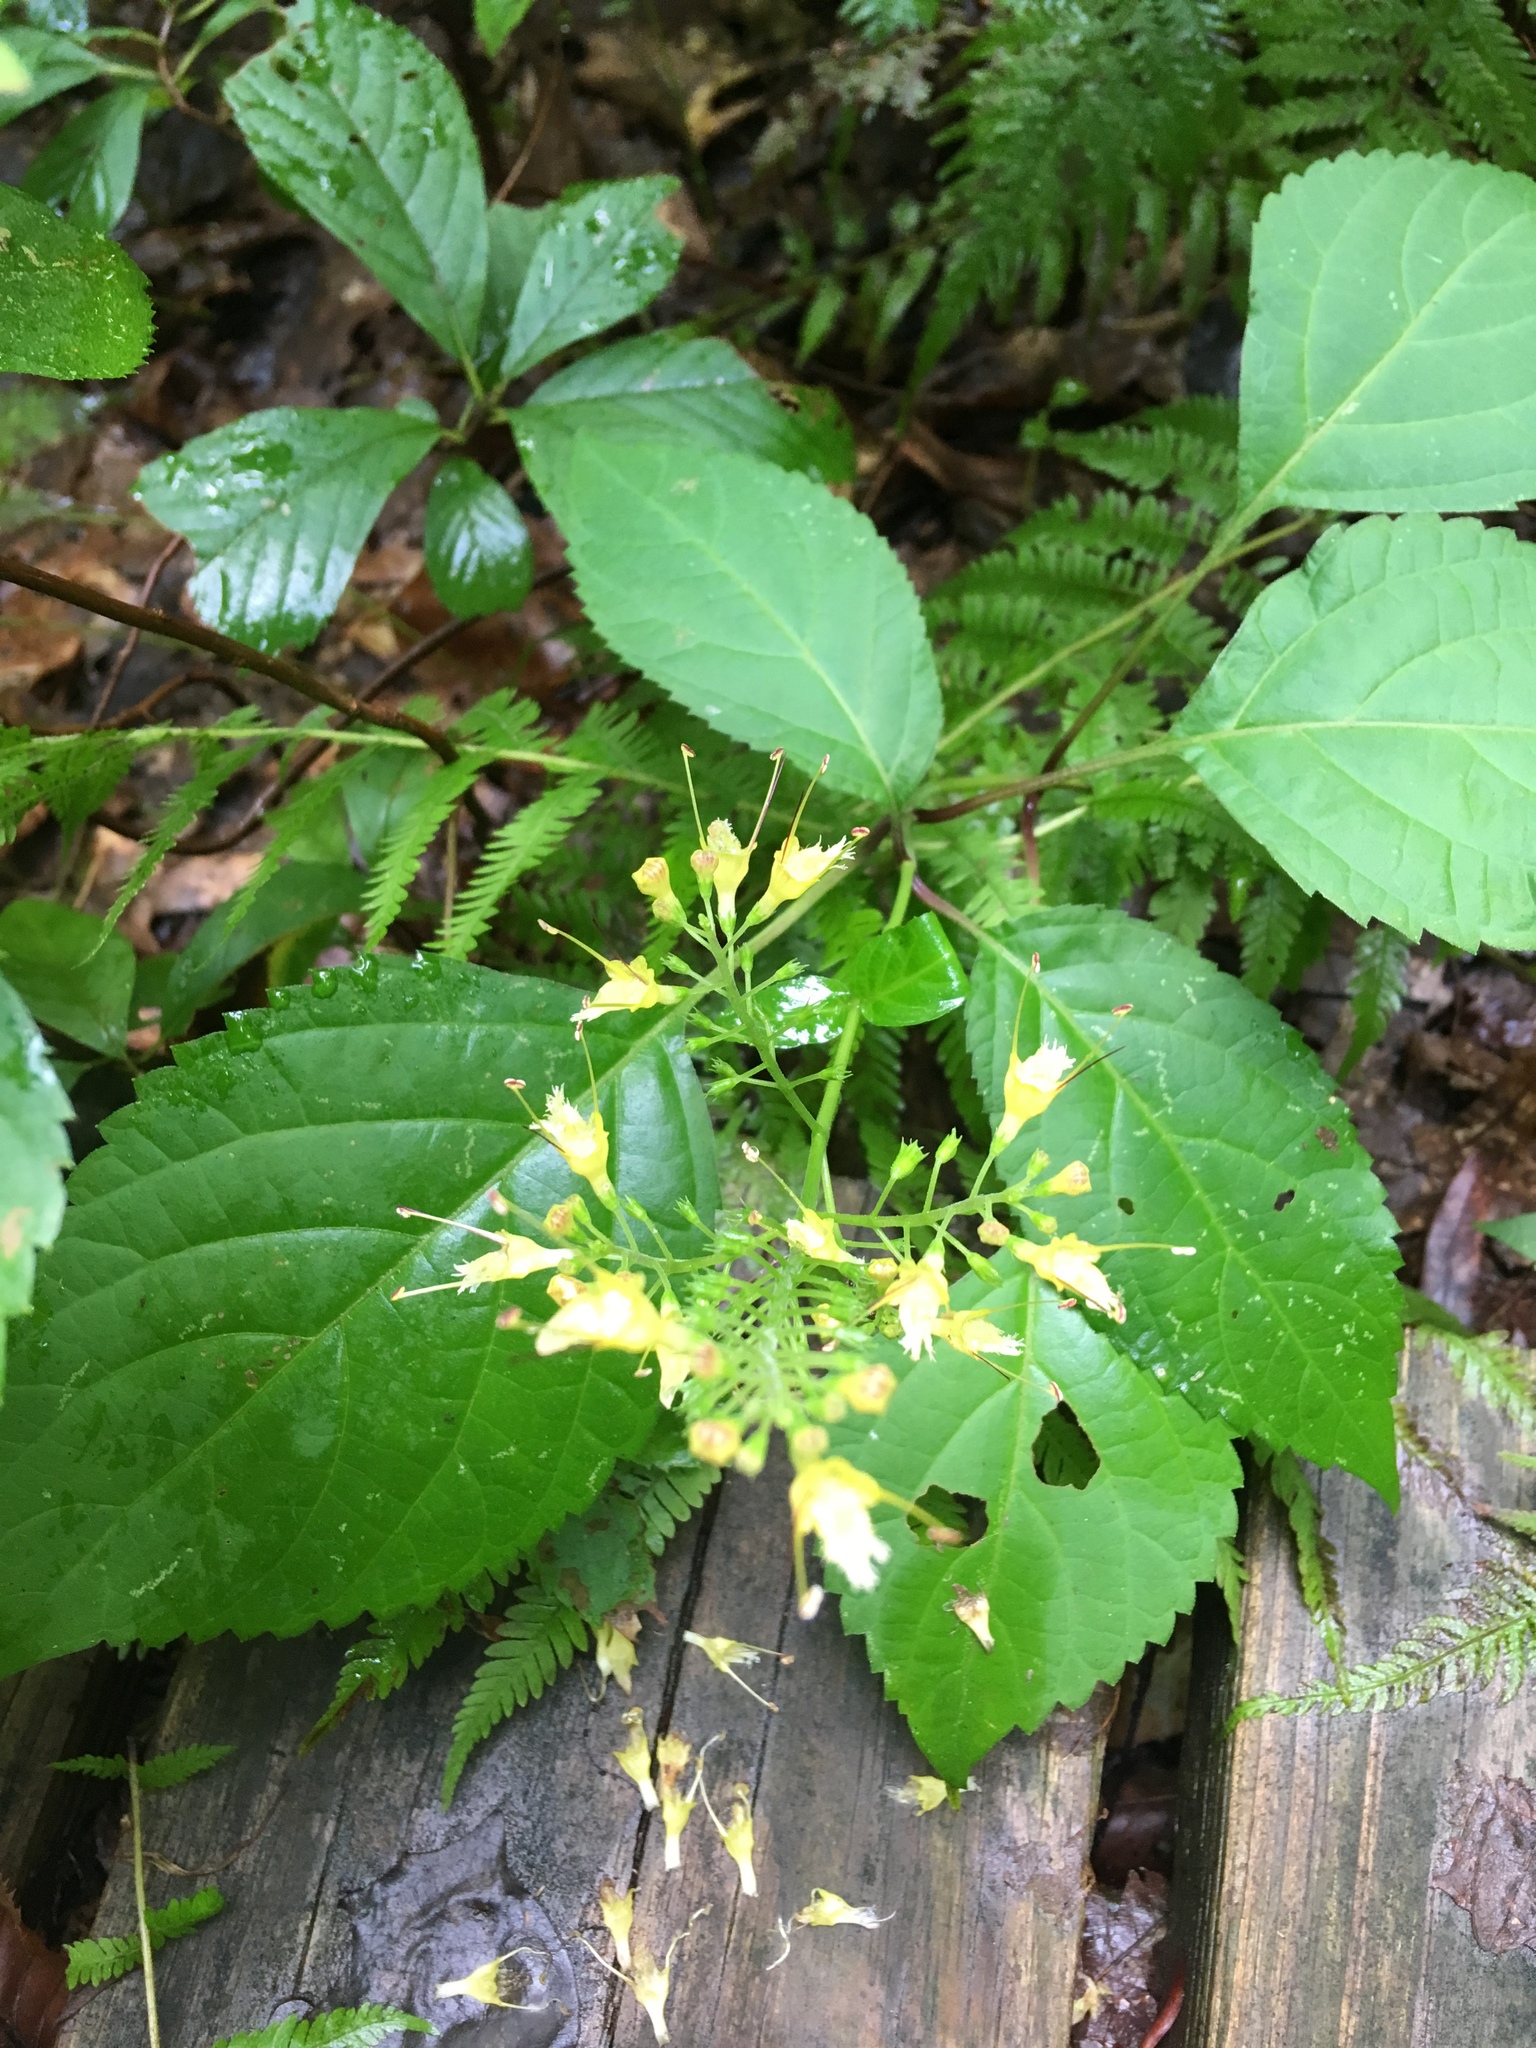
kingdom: Plantae
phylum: Tracheophyta
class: Magnoliopsida
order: Lamiales
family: Lamiaceae
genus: Collinsonia
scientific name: Collinsonia canadensis
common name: Northern horsebalm
